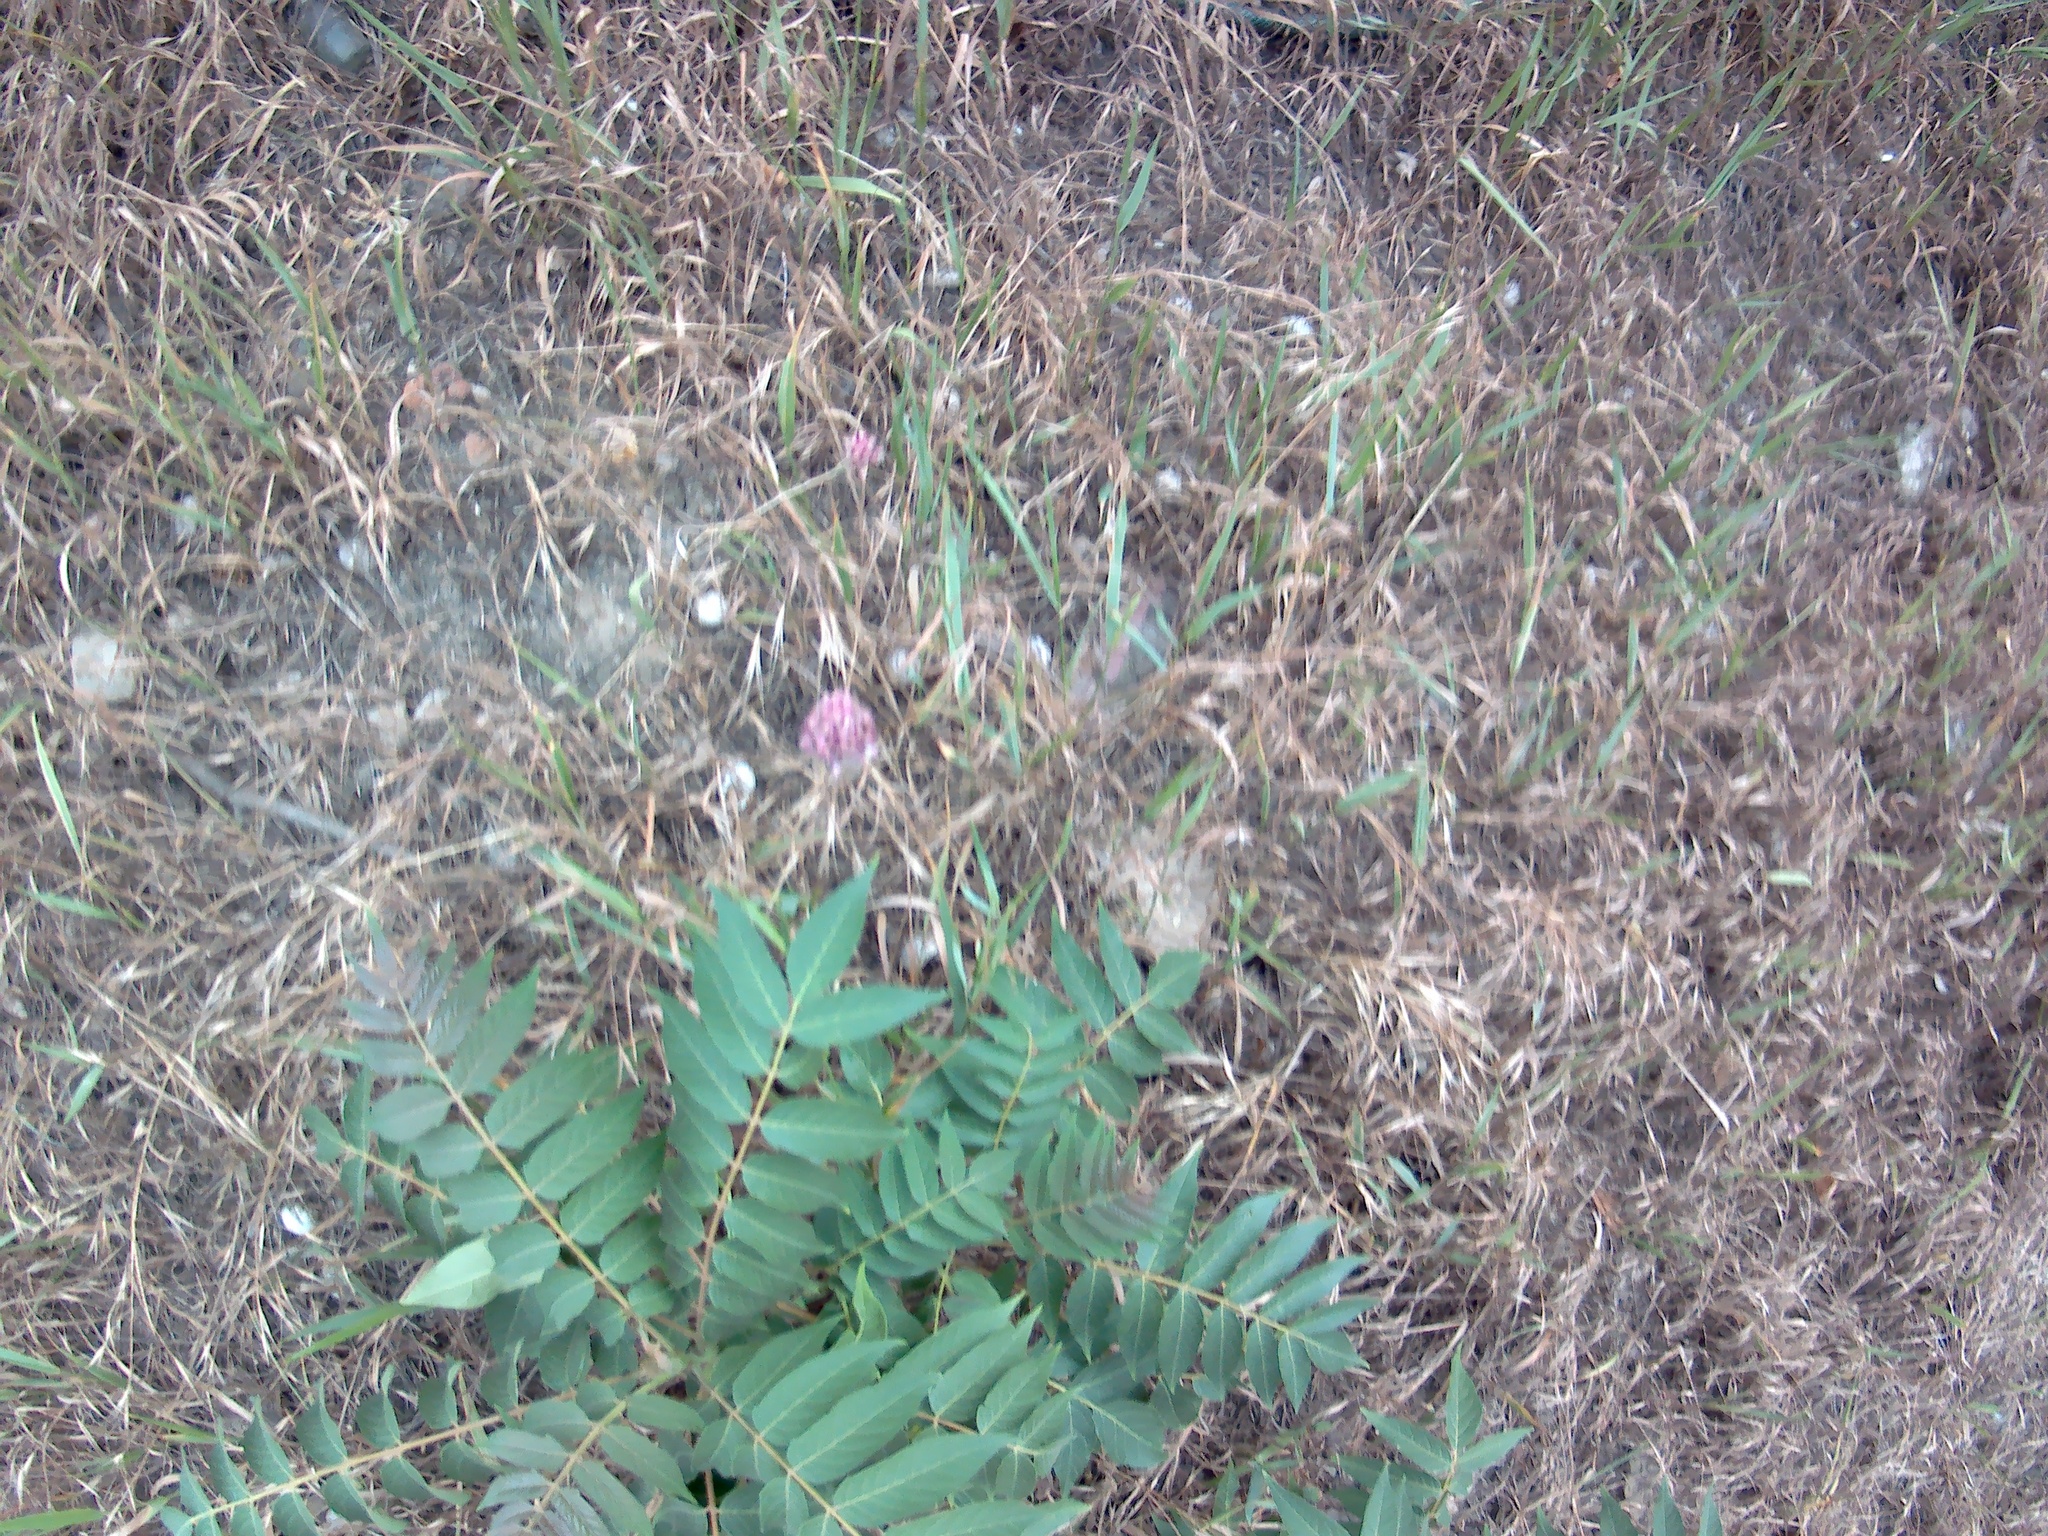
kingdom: Plantae
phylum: Tracheophyta
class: Magnoliopsida
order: Sapindales
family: Simaroubaceae
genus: Ailanthus
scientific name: Ailanthus altissima
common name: Tree-of-heaven
